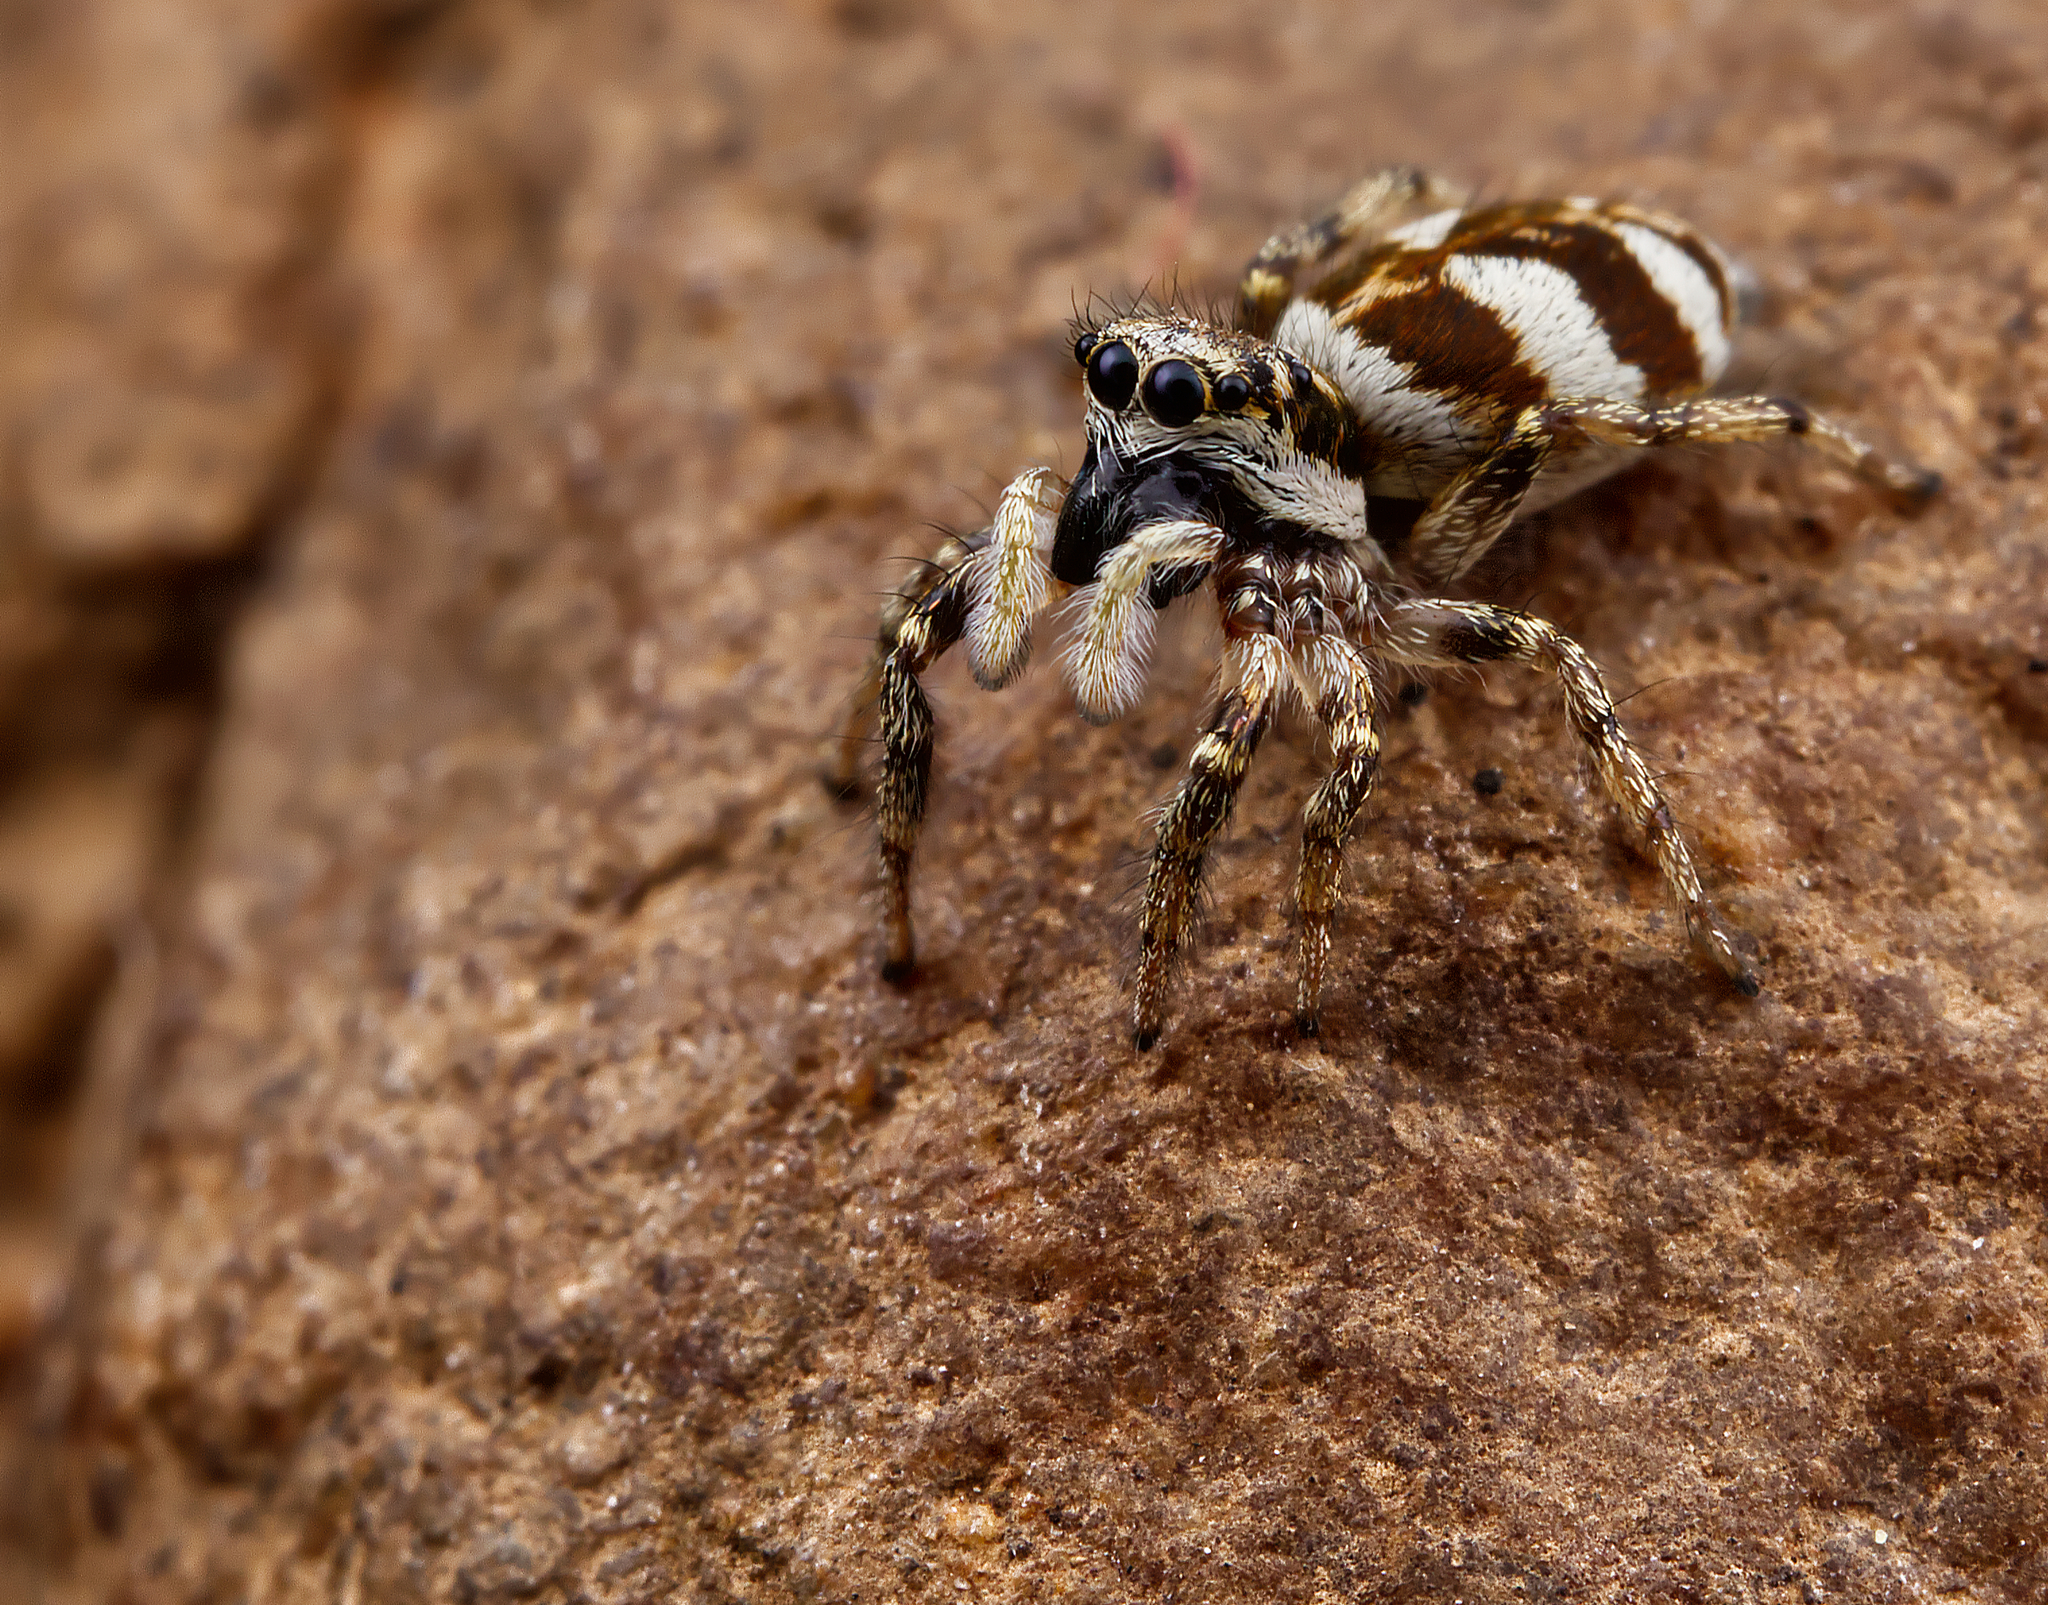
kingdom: Animalia
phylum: Arthropoda
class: Arachnida
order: Araneae
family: Salticidae
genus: Salticus
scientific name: Salticus scenicus
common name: Zebra jumper
